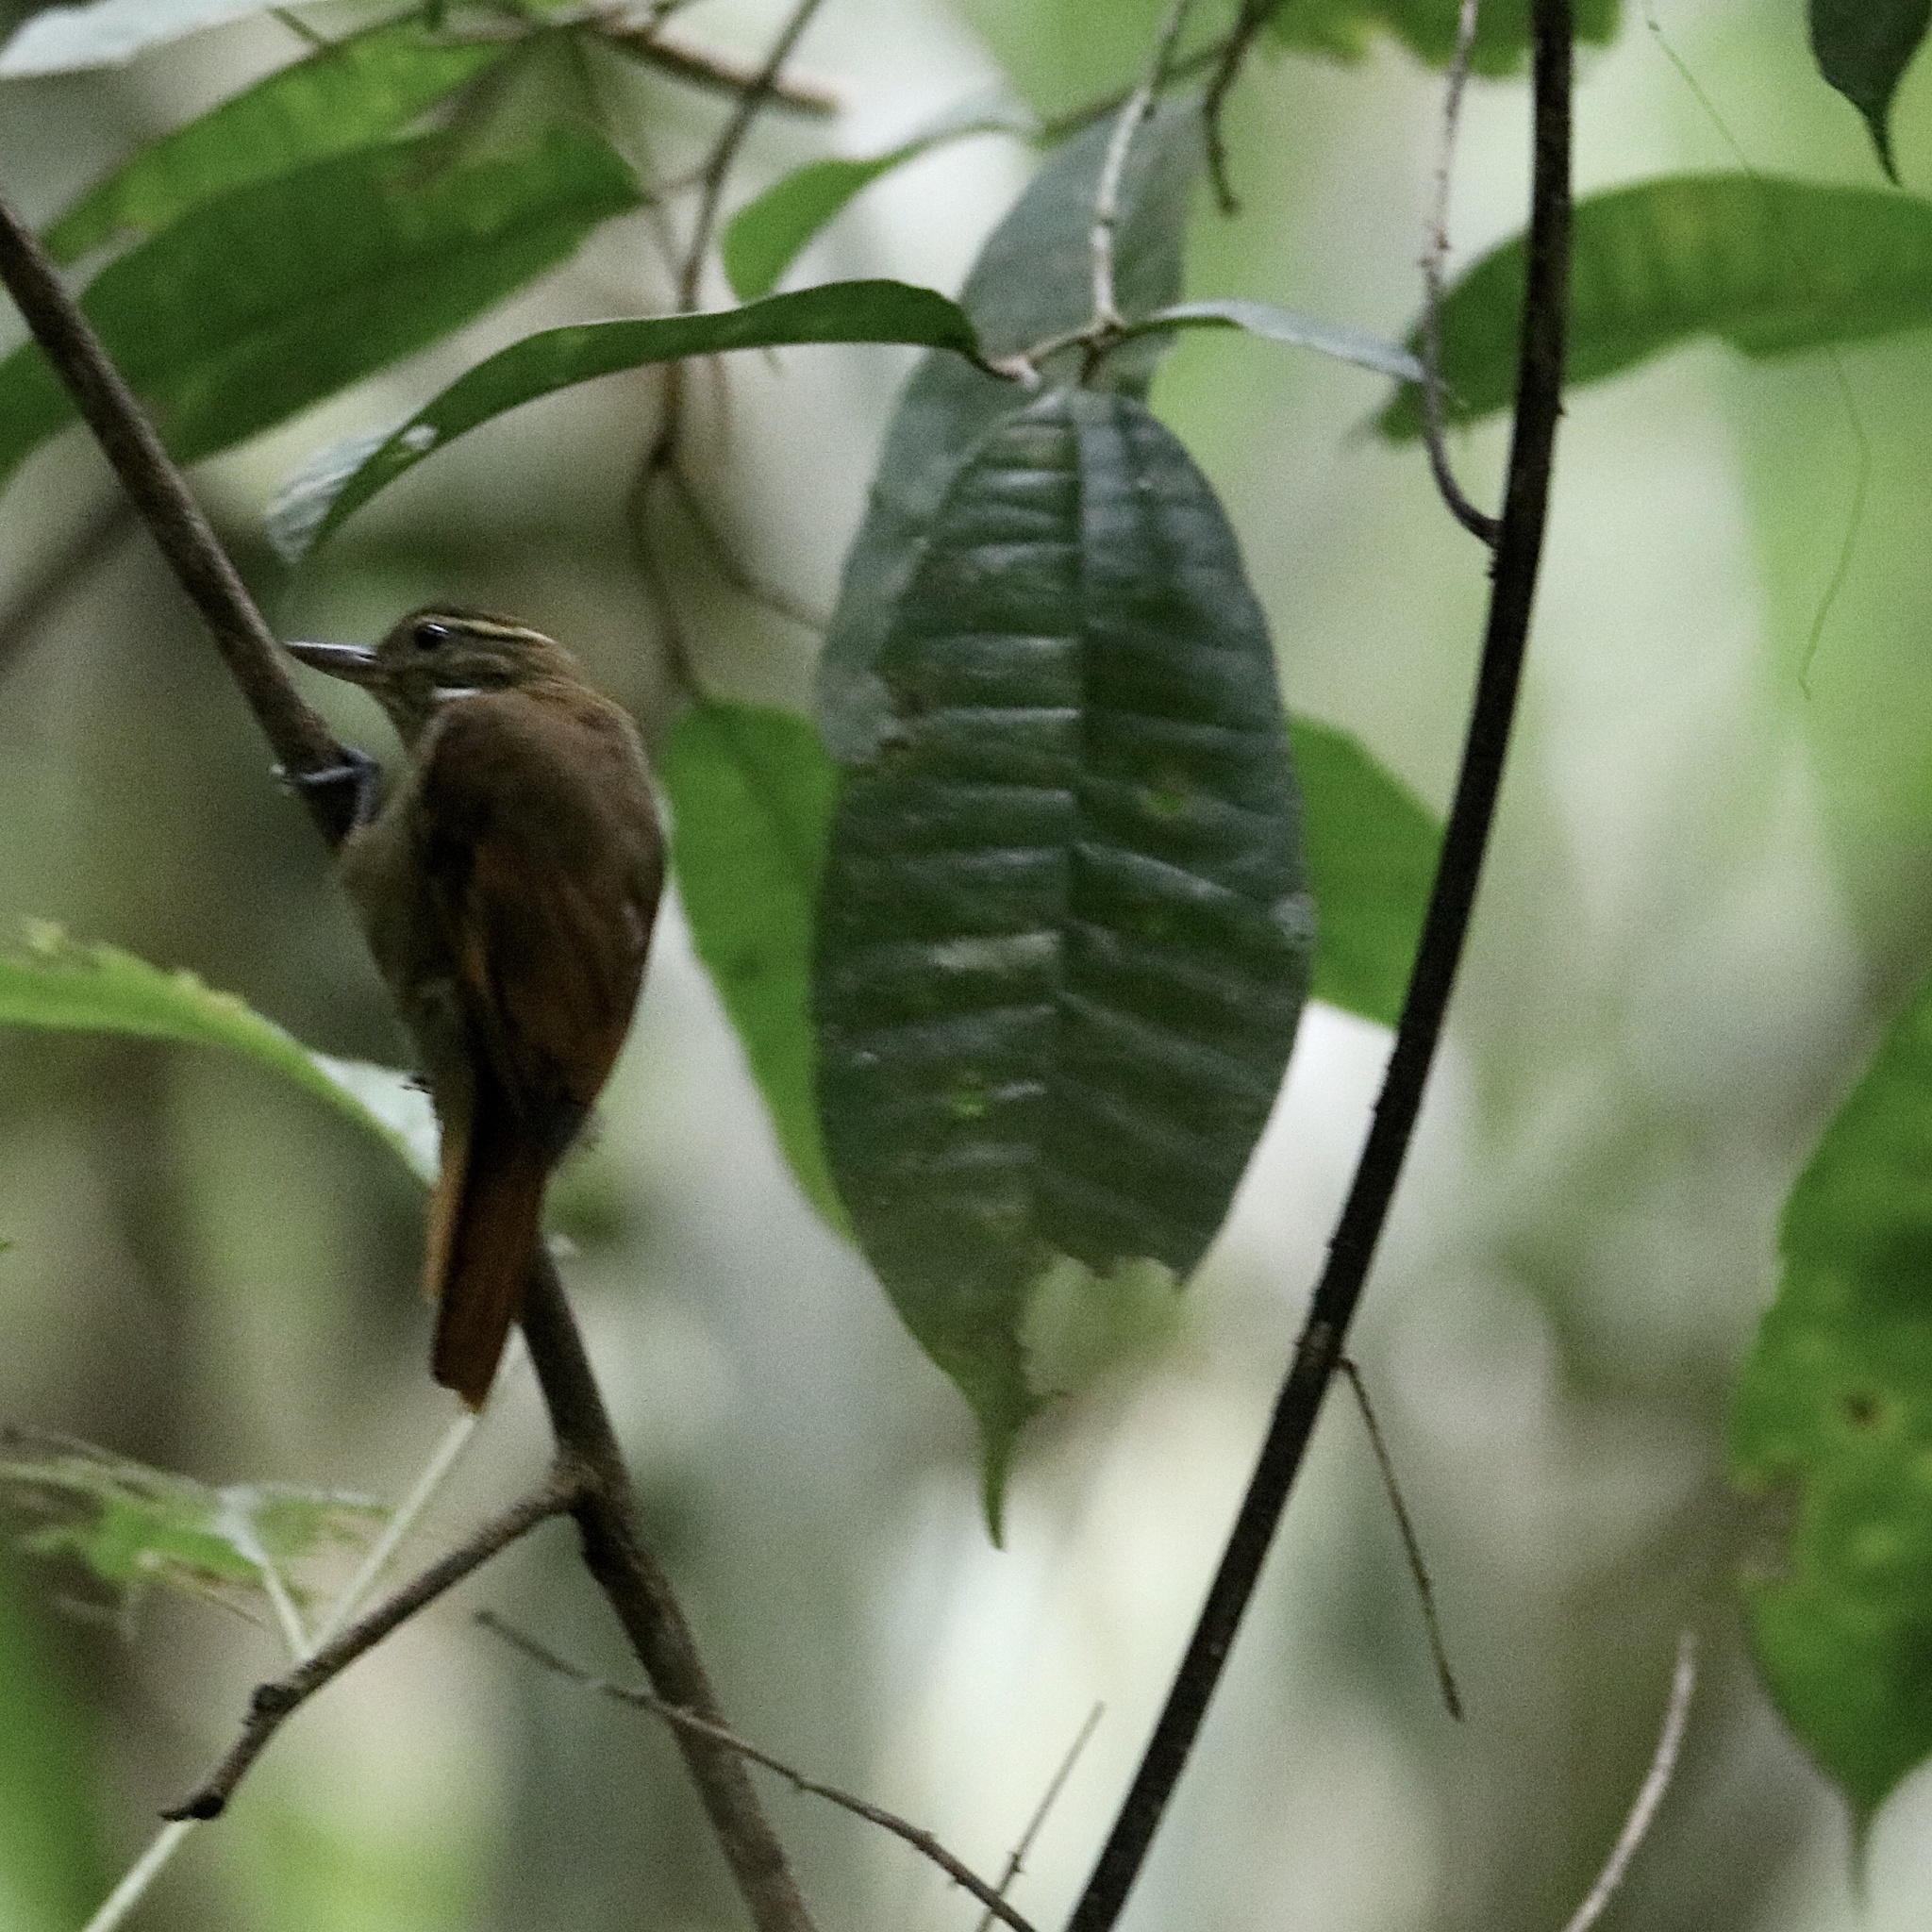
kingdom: Animalia
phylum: Chordata
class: Aves
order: Passeriformes
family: Furnariidae
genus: Xenops
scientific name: Xenops minutus
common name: Plain xenops
